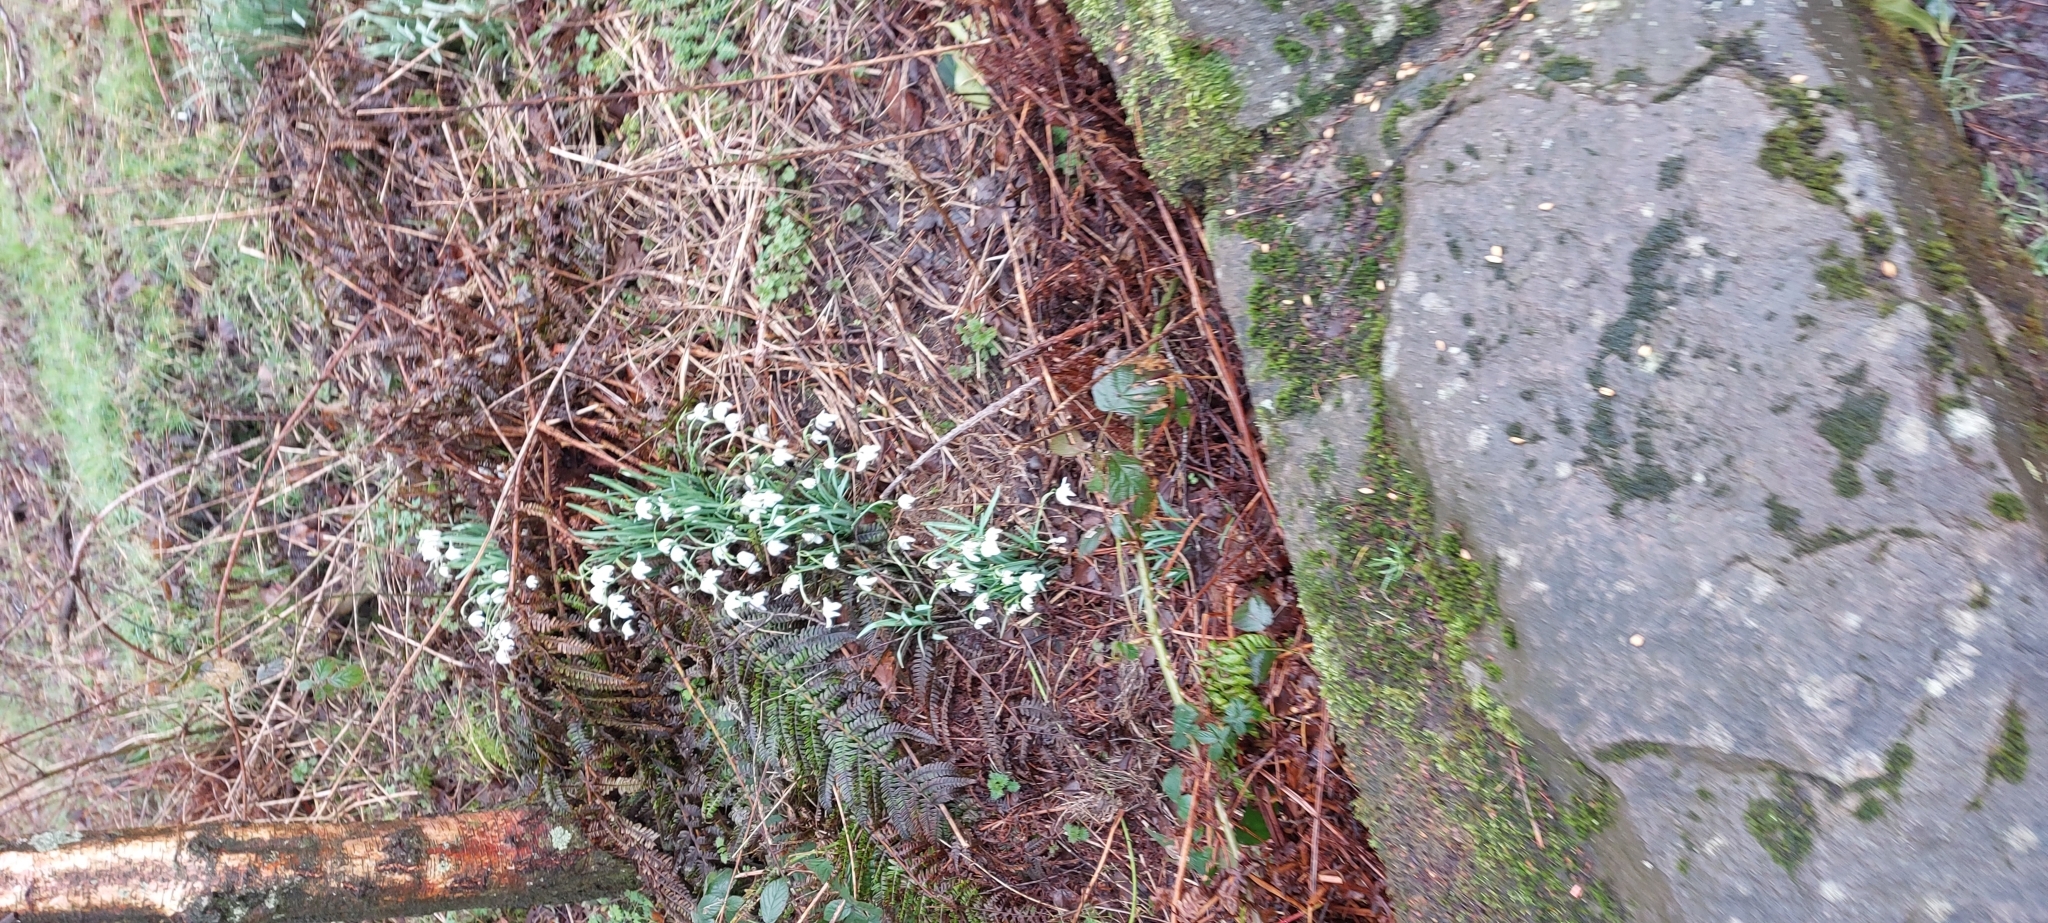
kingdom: Plantae
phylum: Tracheophyta
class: Liliopsida
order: Asparagales
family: Amaryllidaceae
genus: Galanthus
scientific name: Galanthus nivalis
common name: Snowdrop
